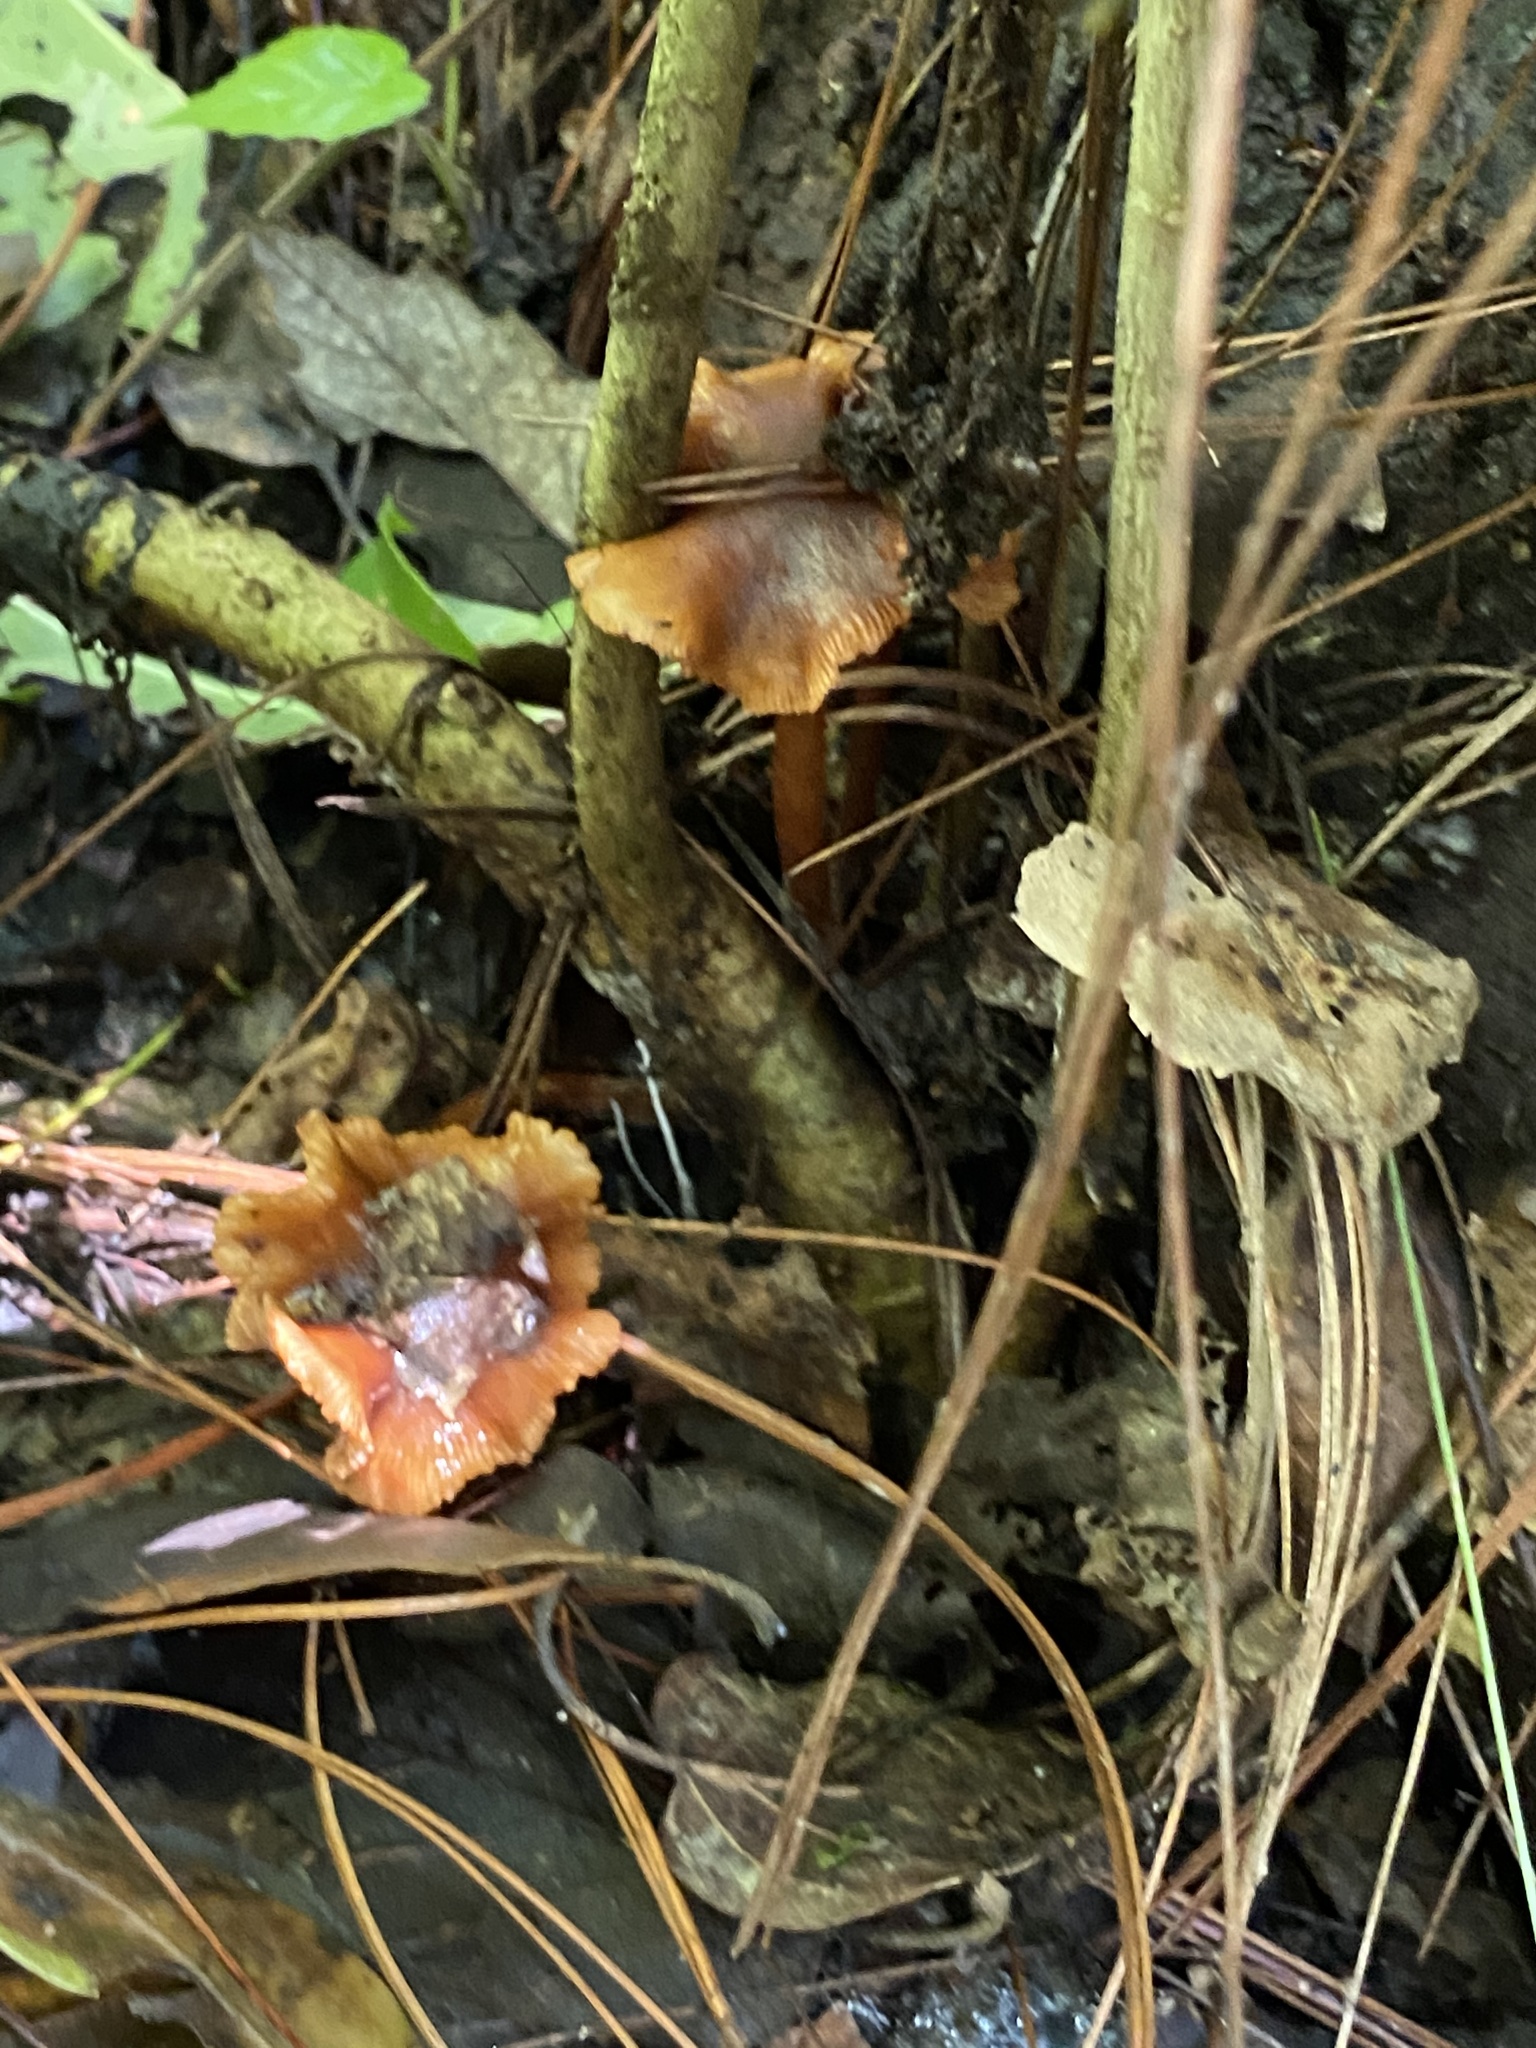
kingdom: Fungi
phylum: Basidiomycota
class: Agaricomycetes
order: Agaricales
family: Mycenaceae
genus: Xeromphalina
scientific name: Xeromphalina tenuipes
